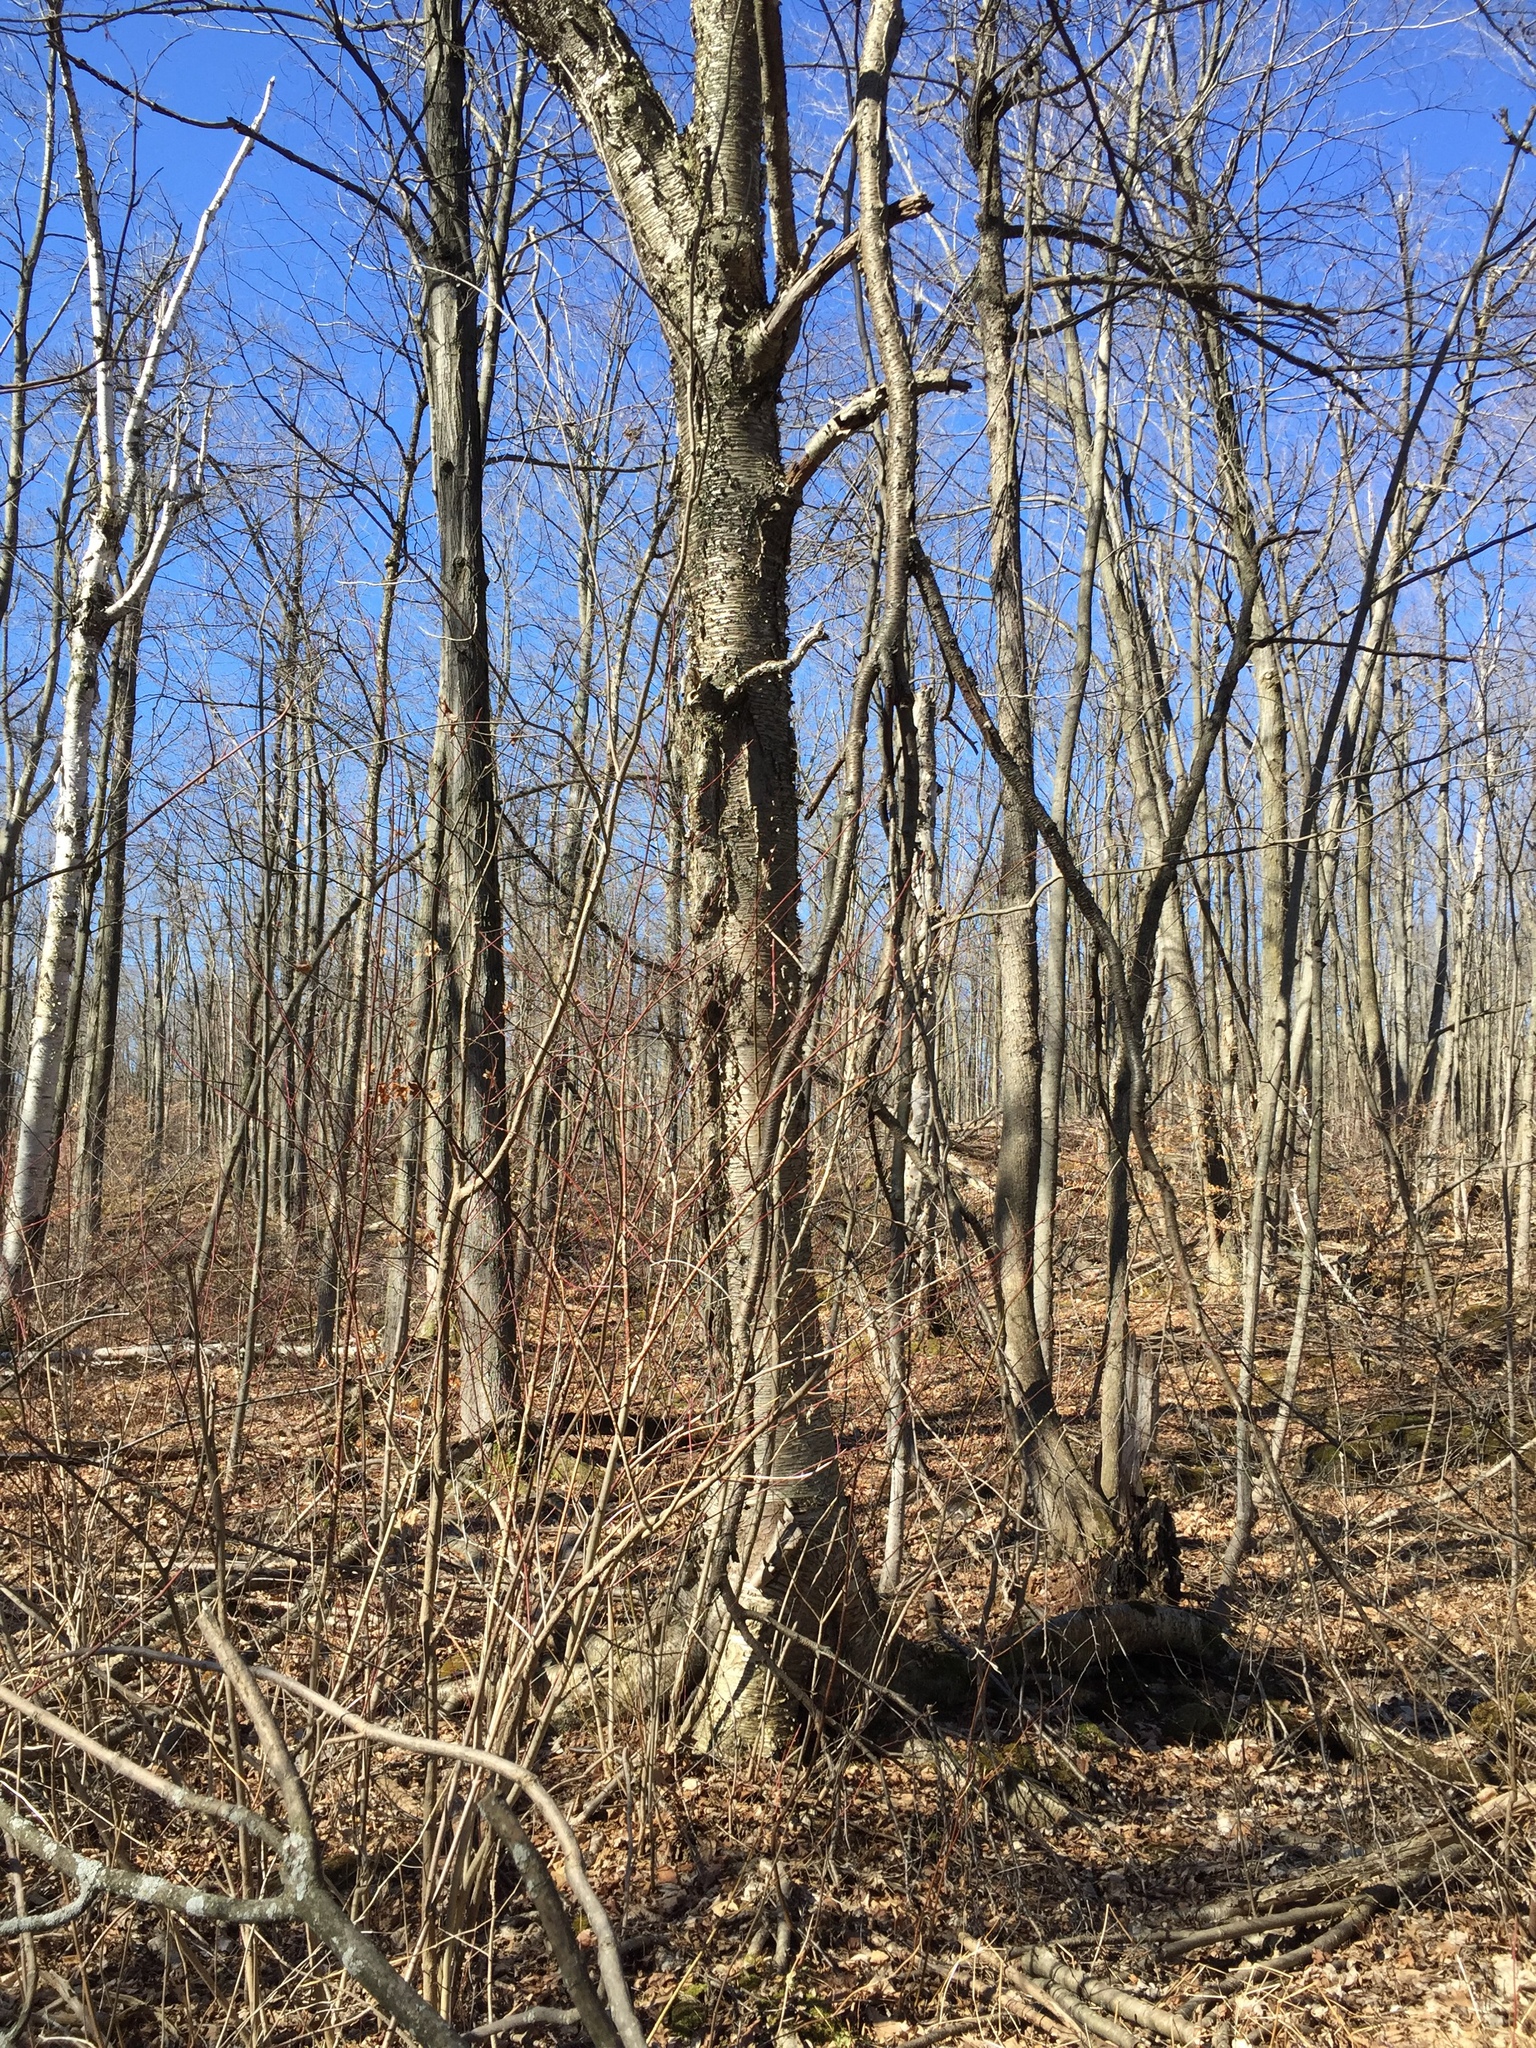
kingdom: Plantae
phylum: Tracheophyta
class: Magnoliopsida
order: Fagales
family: Betulaceae
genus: Betula
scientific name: Betula alleghaniensis
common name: Yellow birch
